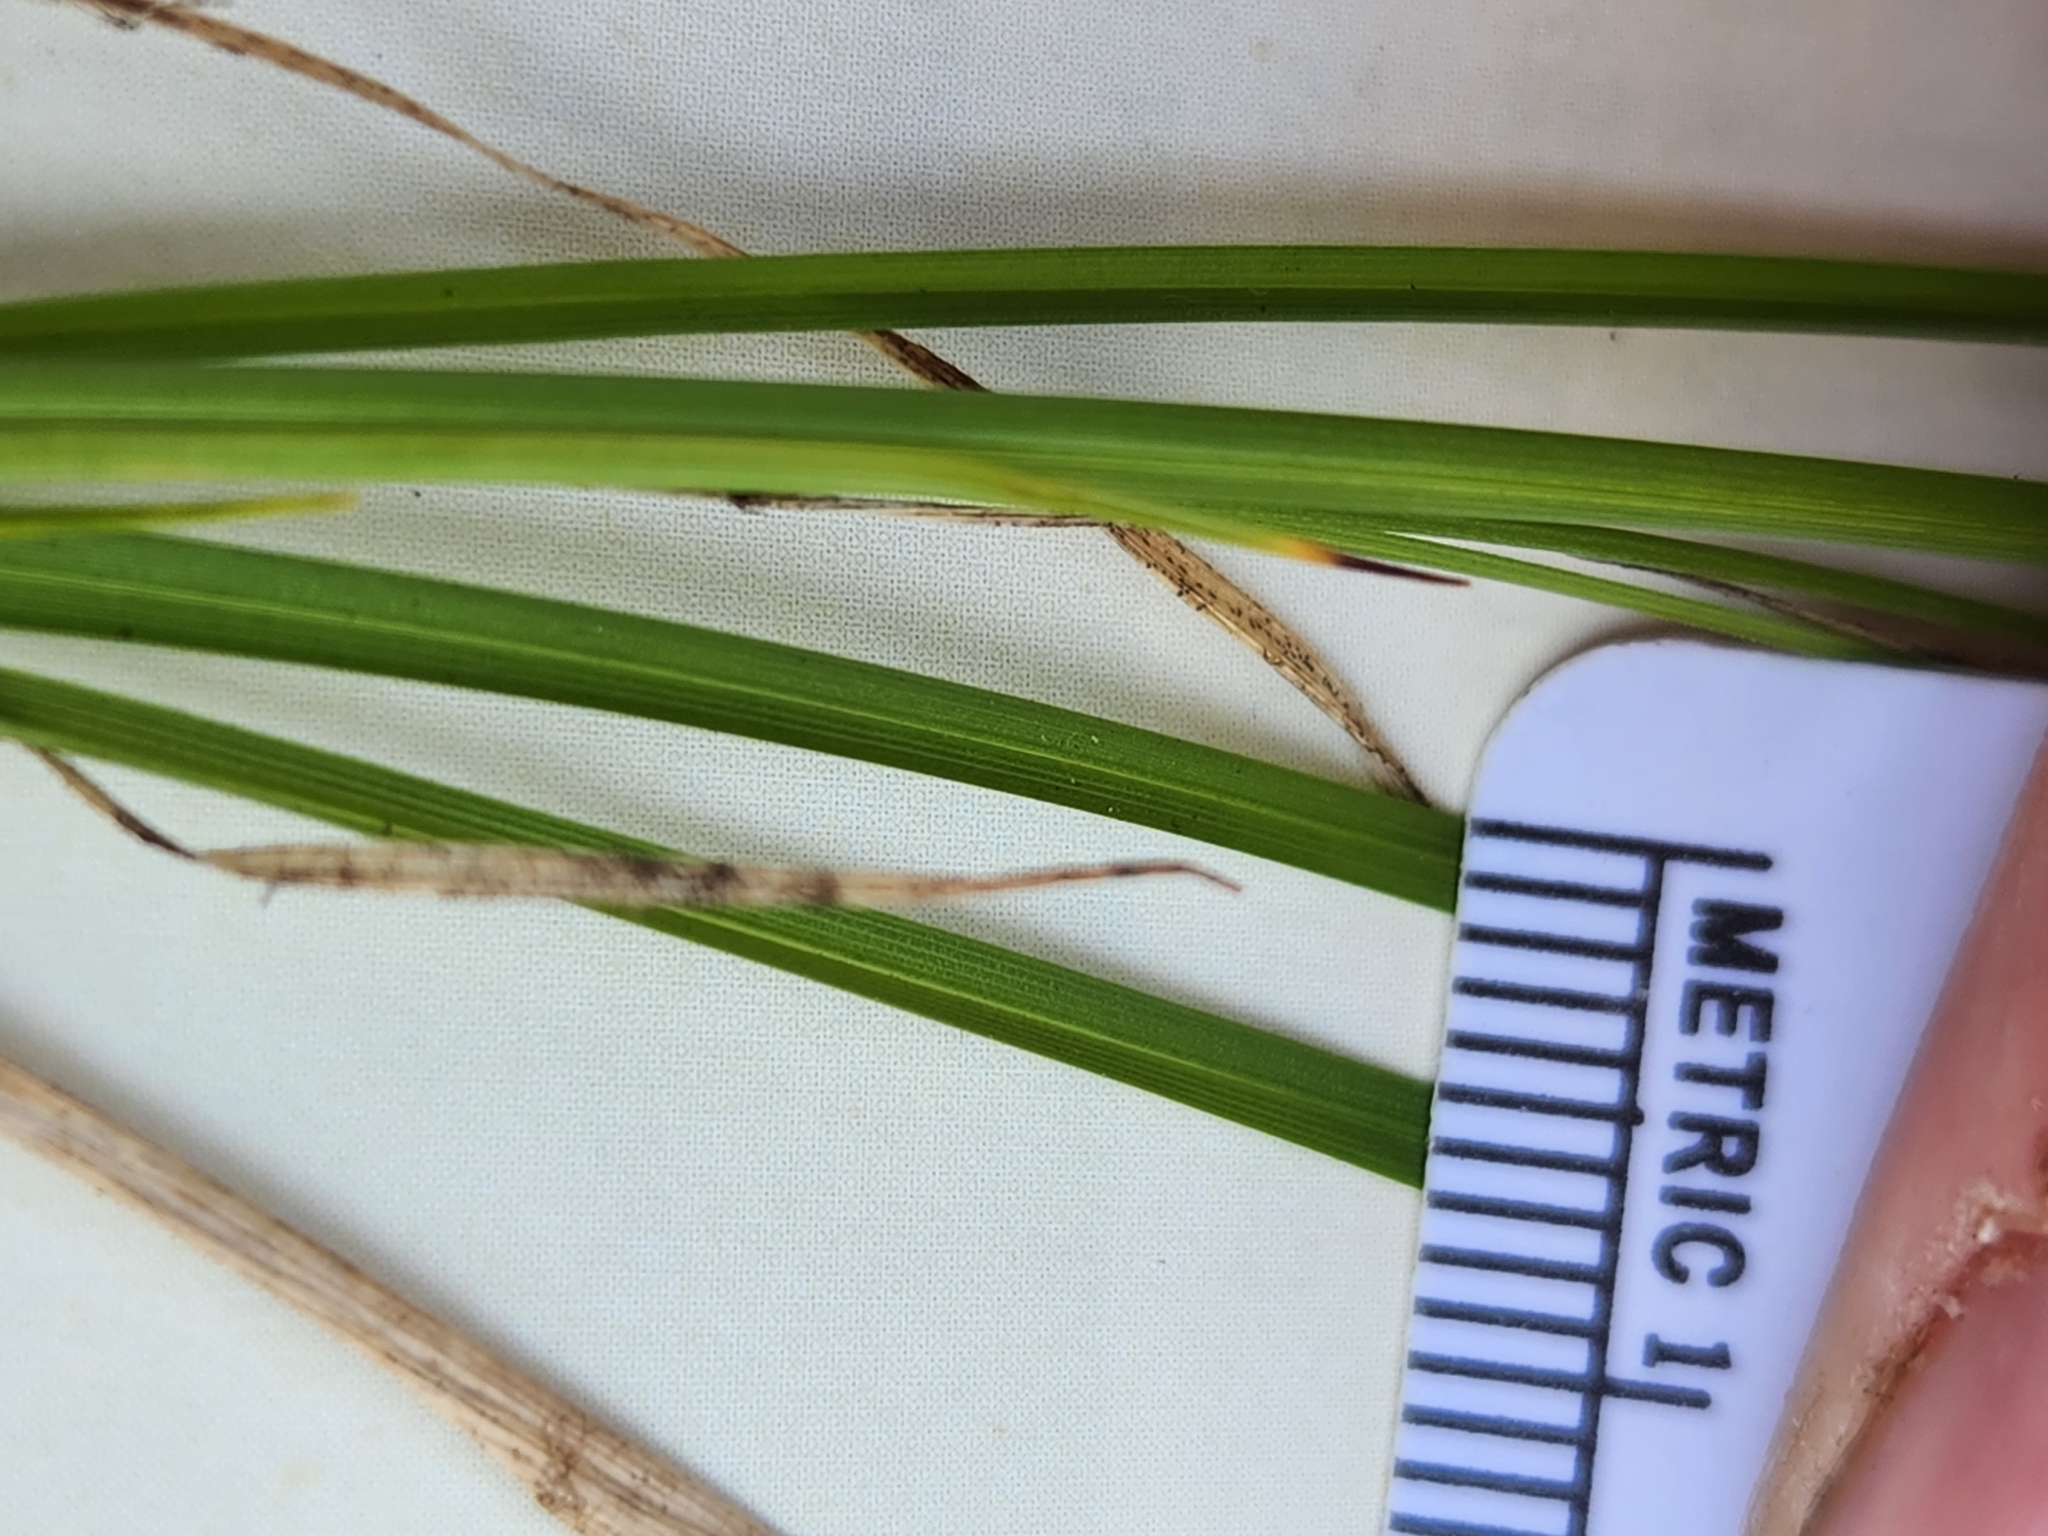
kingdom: Plantae
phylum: Tracheophyta
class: Liliopsida
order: Poales
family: Cyperaceae
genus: Carex
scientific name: Carex umbellata
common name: Early oak sedge
